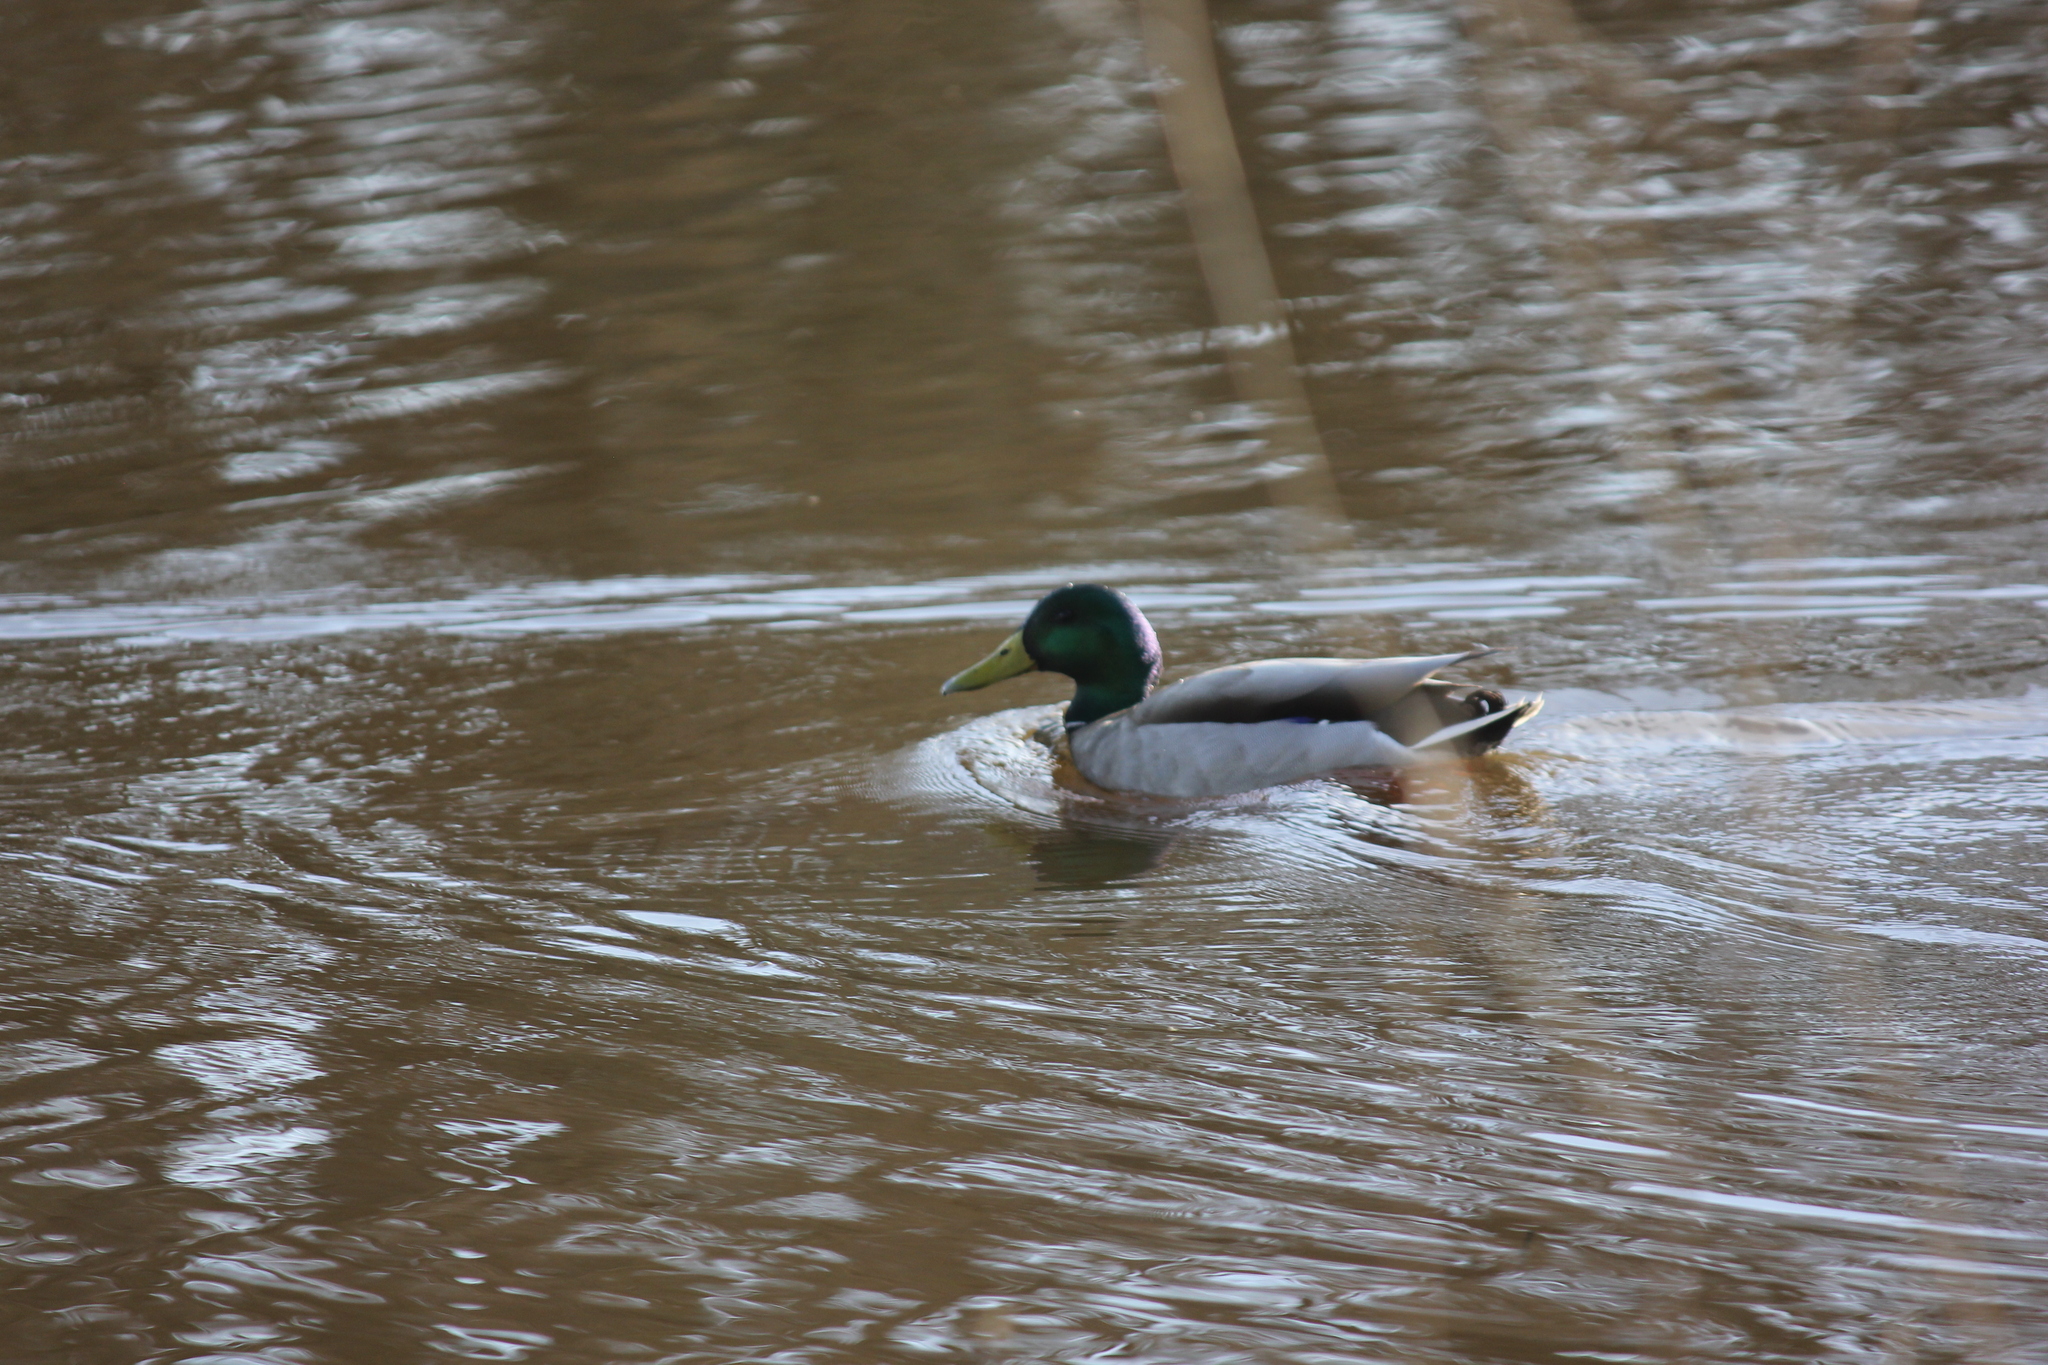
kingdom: Animalia
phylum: Chordata
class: Aves
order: Anseriformes
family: Anatidae
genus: Anas
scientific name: Anas platyrhynchos
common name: Mallard
